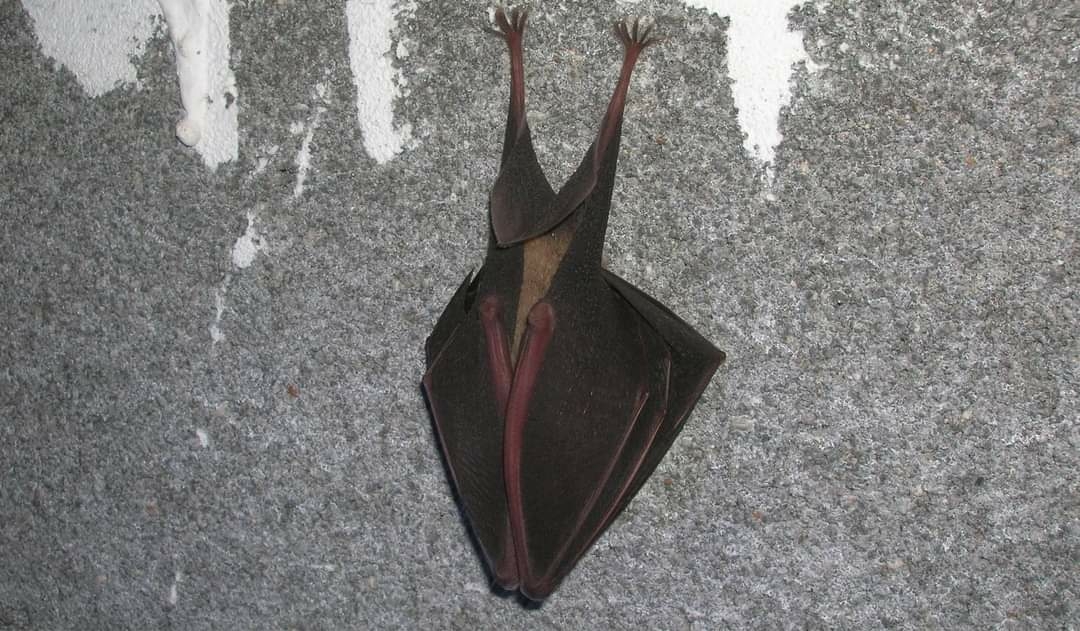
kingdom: Animalia
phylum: Chordata
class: Mammalia
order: Chiroptera
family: Rhinolophidae
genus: Rhinolophus
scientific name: Rhinolophus ferrumequinum
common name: Greater horseshoe bat
